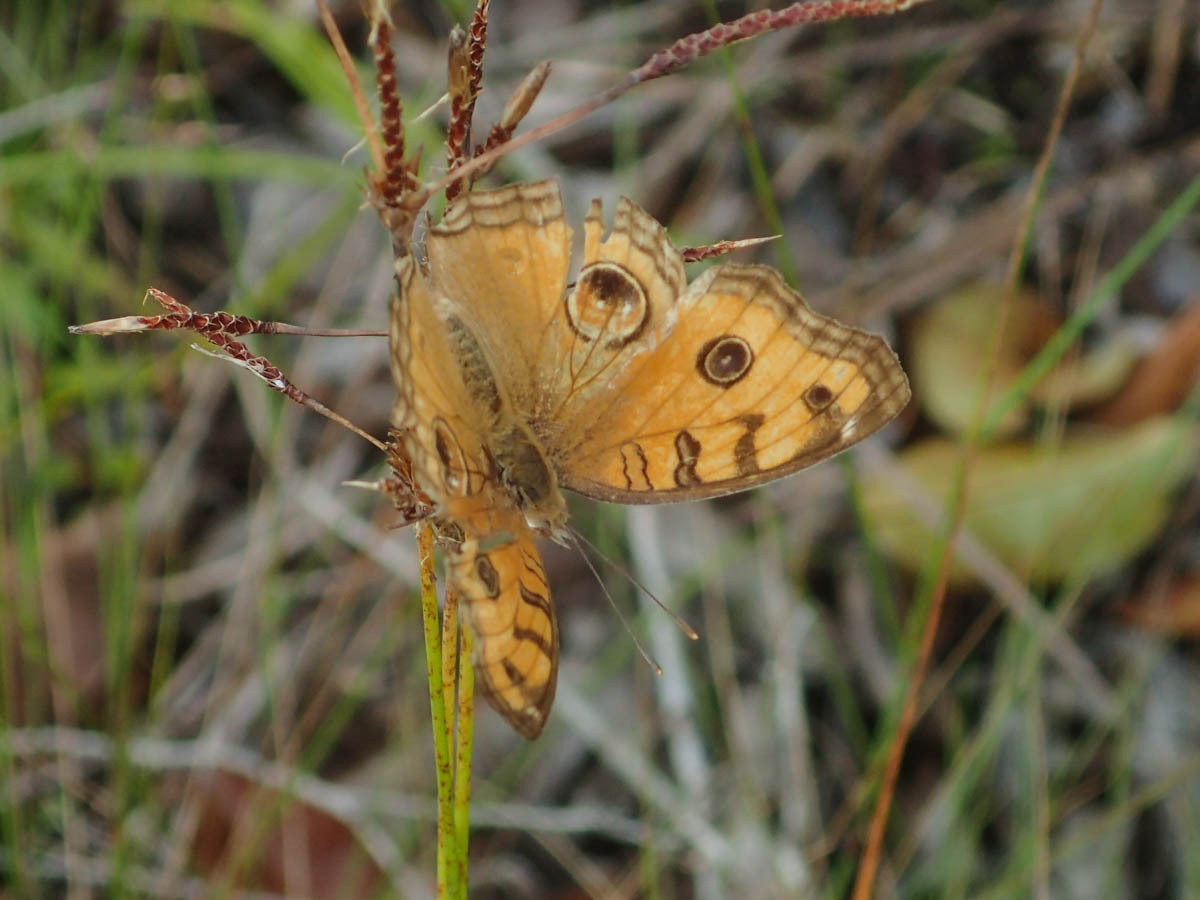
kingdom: Animalia
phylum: Arthropoda
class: Insecta
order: Lepidoptera
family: Nymphalidae
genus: Junonia
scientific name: Junonia almana
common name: Peacock pansy
